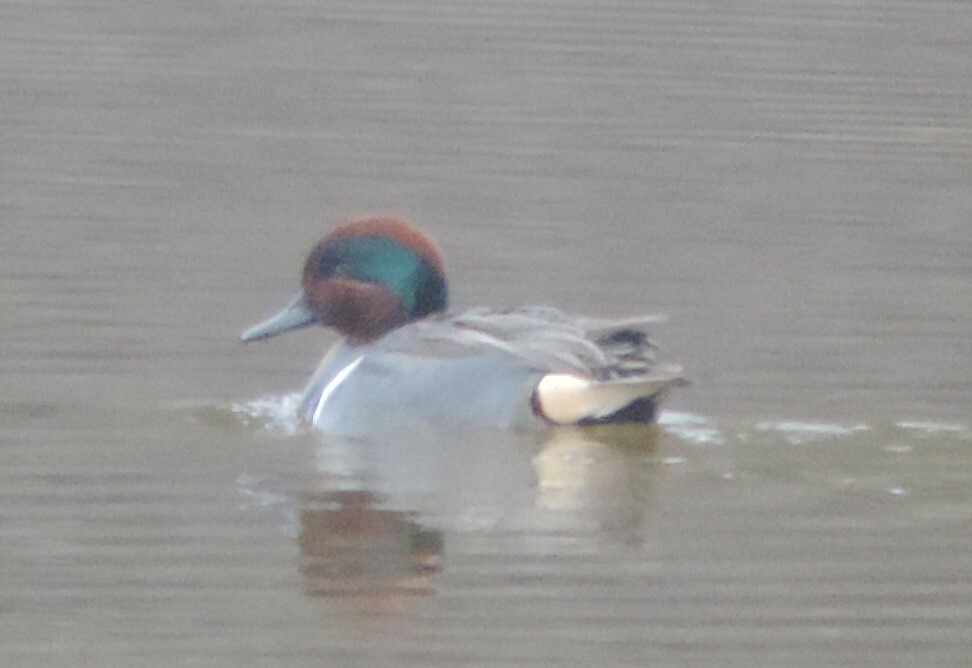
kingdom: Animalia
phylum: Chordata
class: Aves
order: Anseriformes
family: Anatidae
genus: Anas
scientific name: Anas crecca
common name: Eurasian teal
